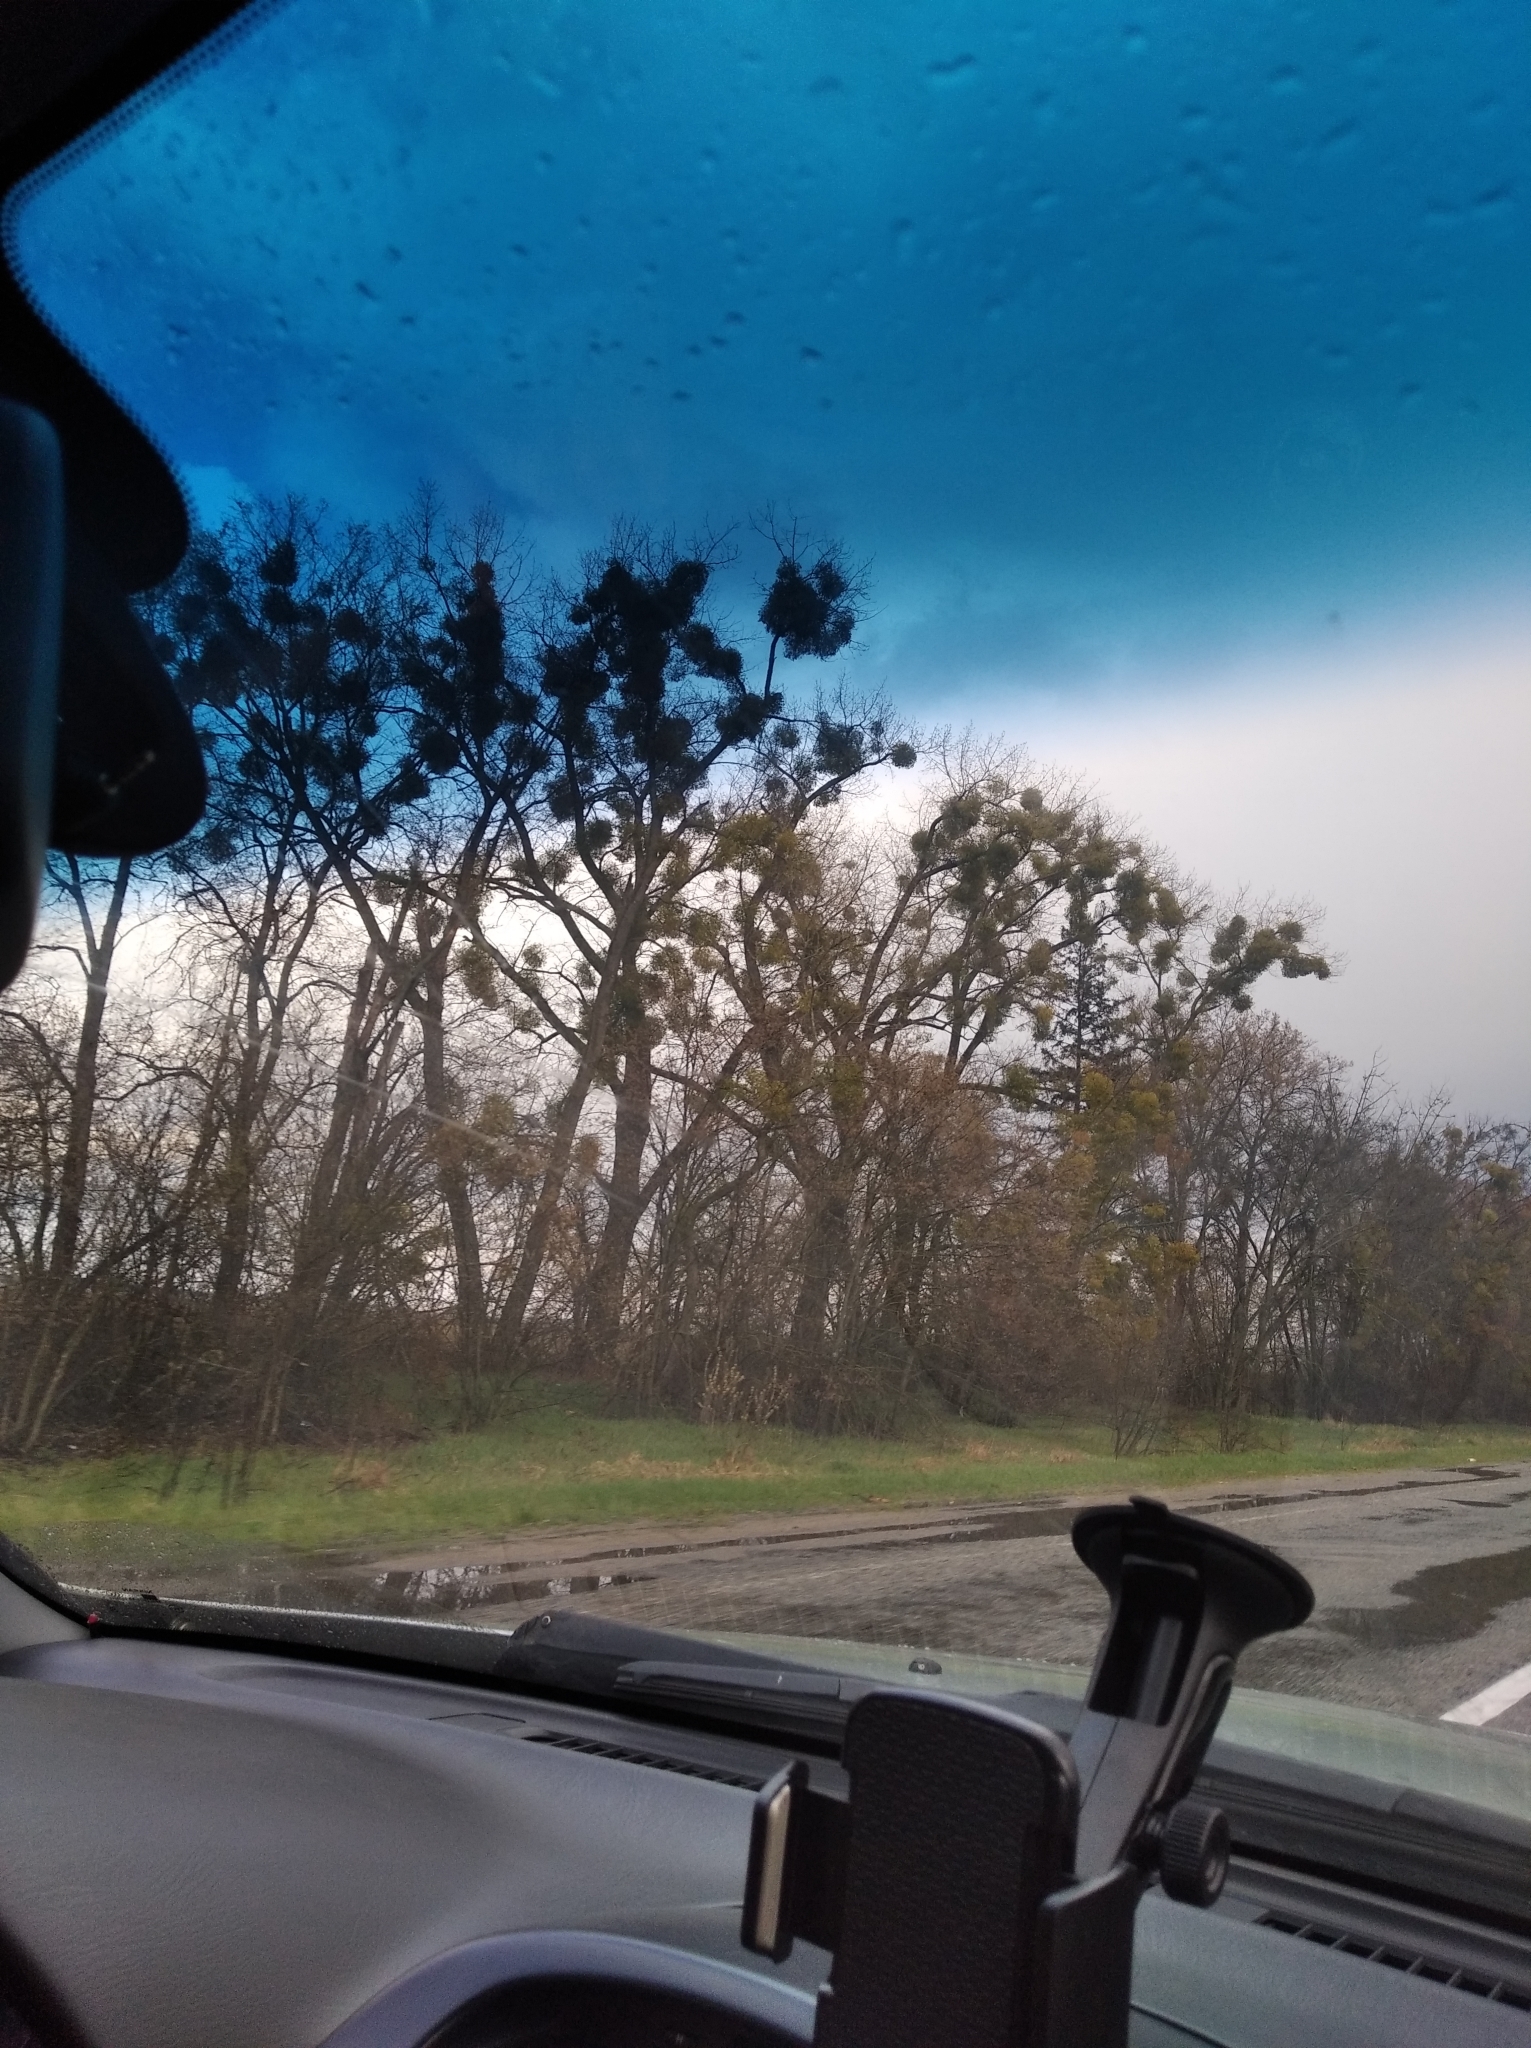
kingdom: Plantae
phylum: Tracheophyta
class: Magnoliopsida
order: Santalales
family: Viscaceae
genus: Viscum
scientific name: Viscum album
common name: Mistletoe
